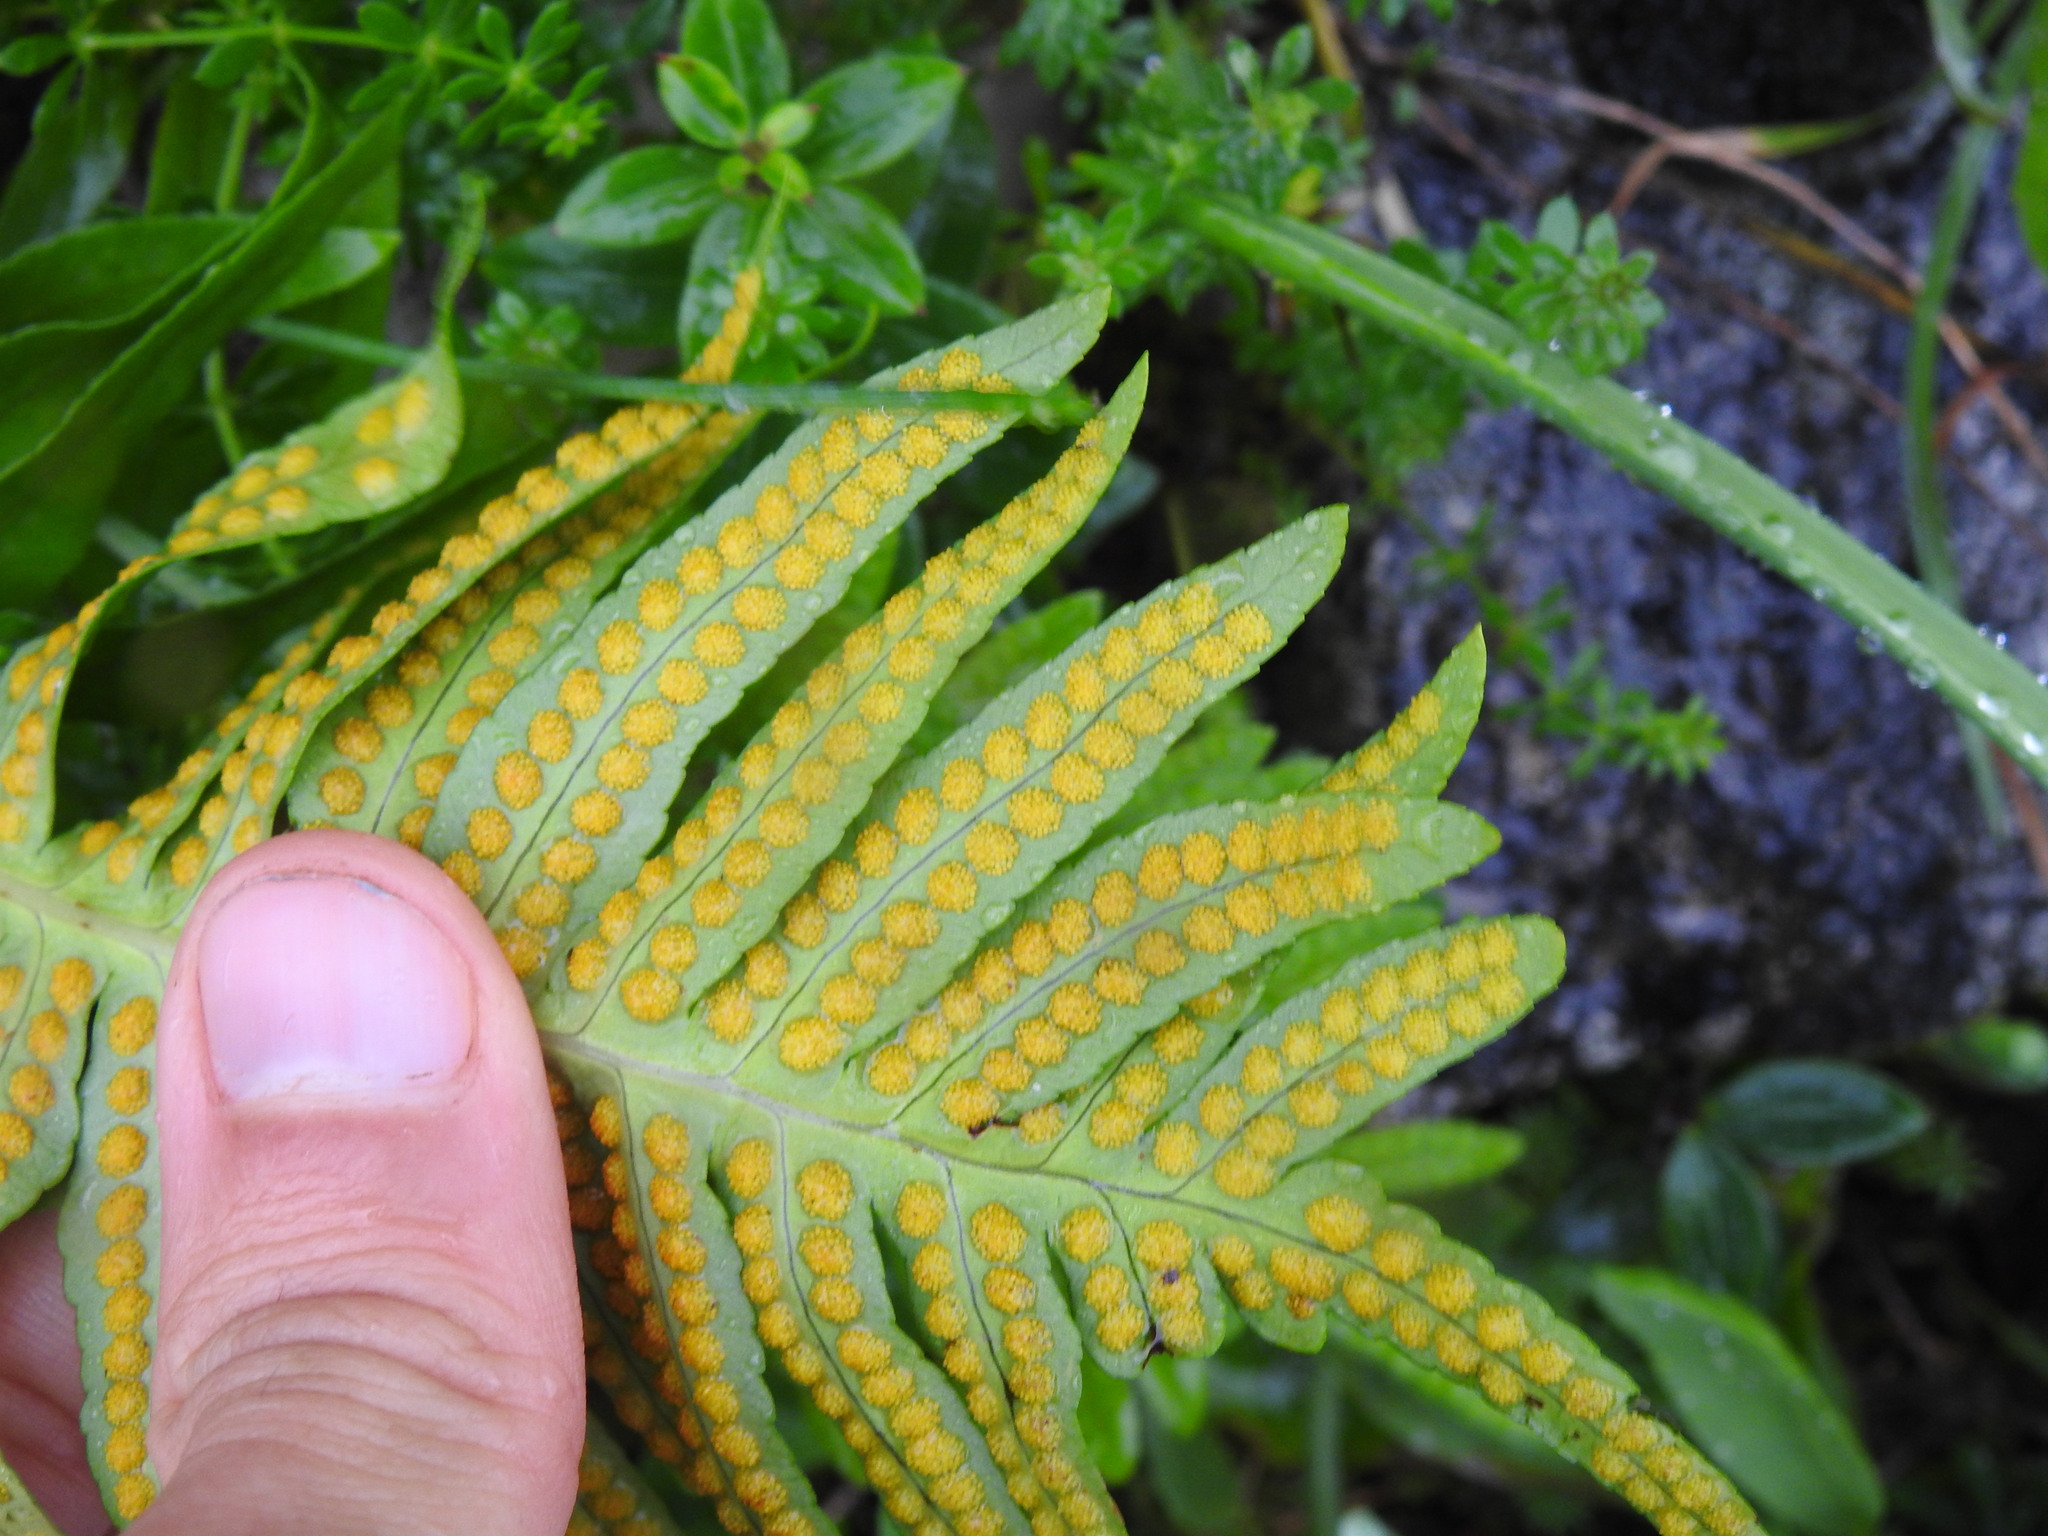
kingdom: Plantae
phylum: Tracheophyta
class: Polypodiopsida
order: Polypodiales
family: Polypodiaceae
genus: Polypodium
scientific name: Polypodium cambricum
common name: Southern polypody
